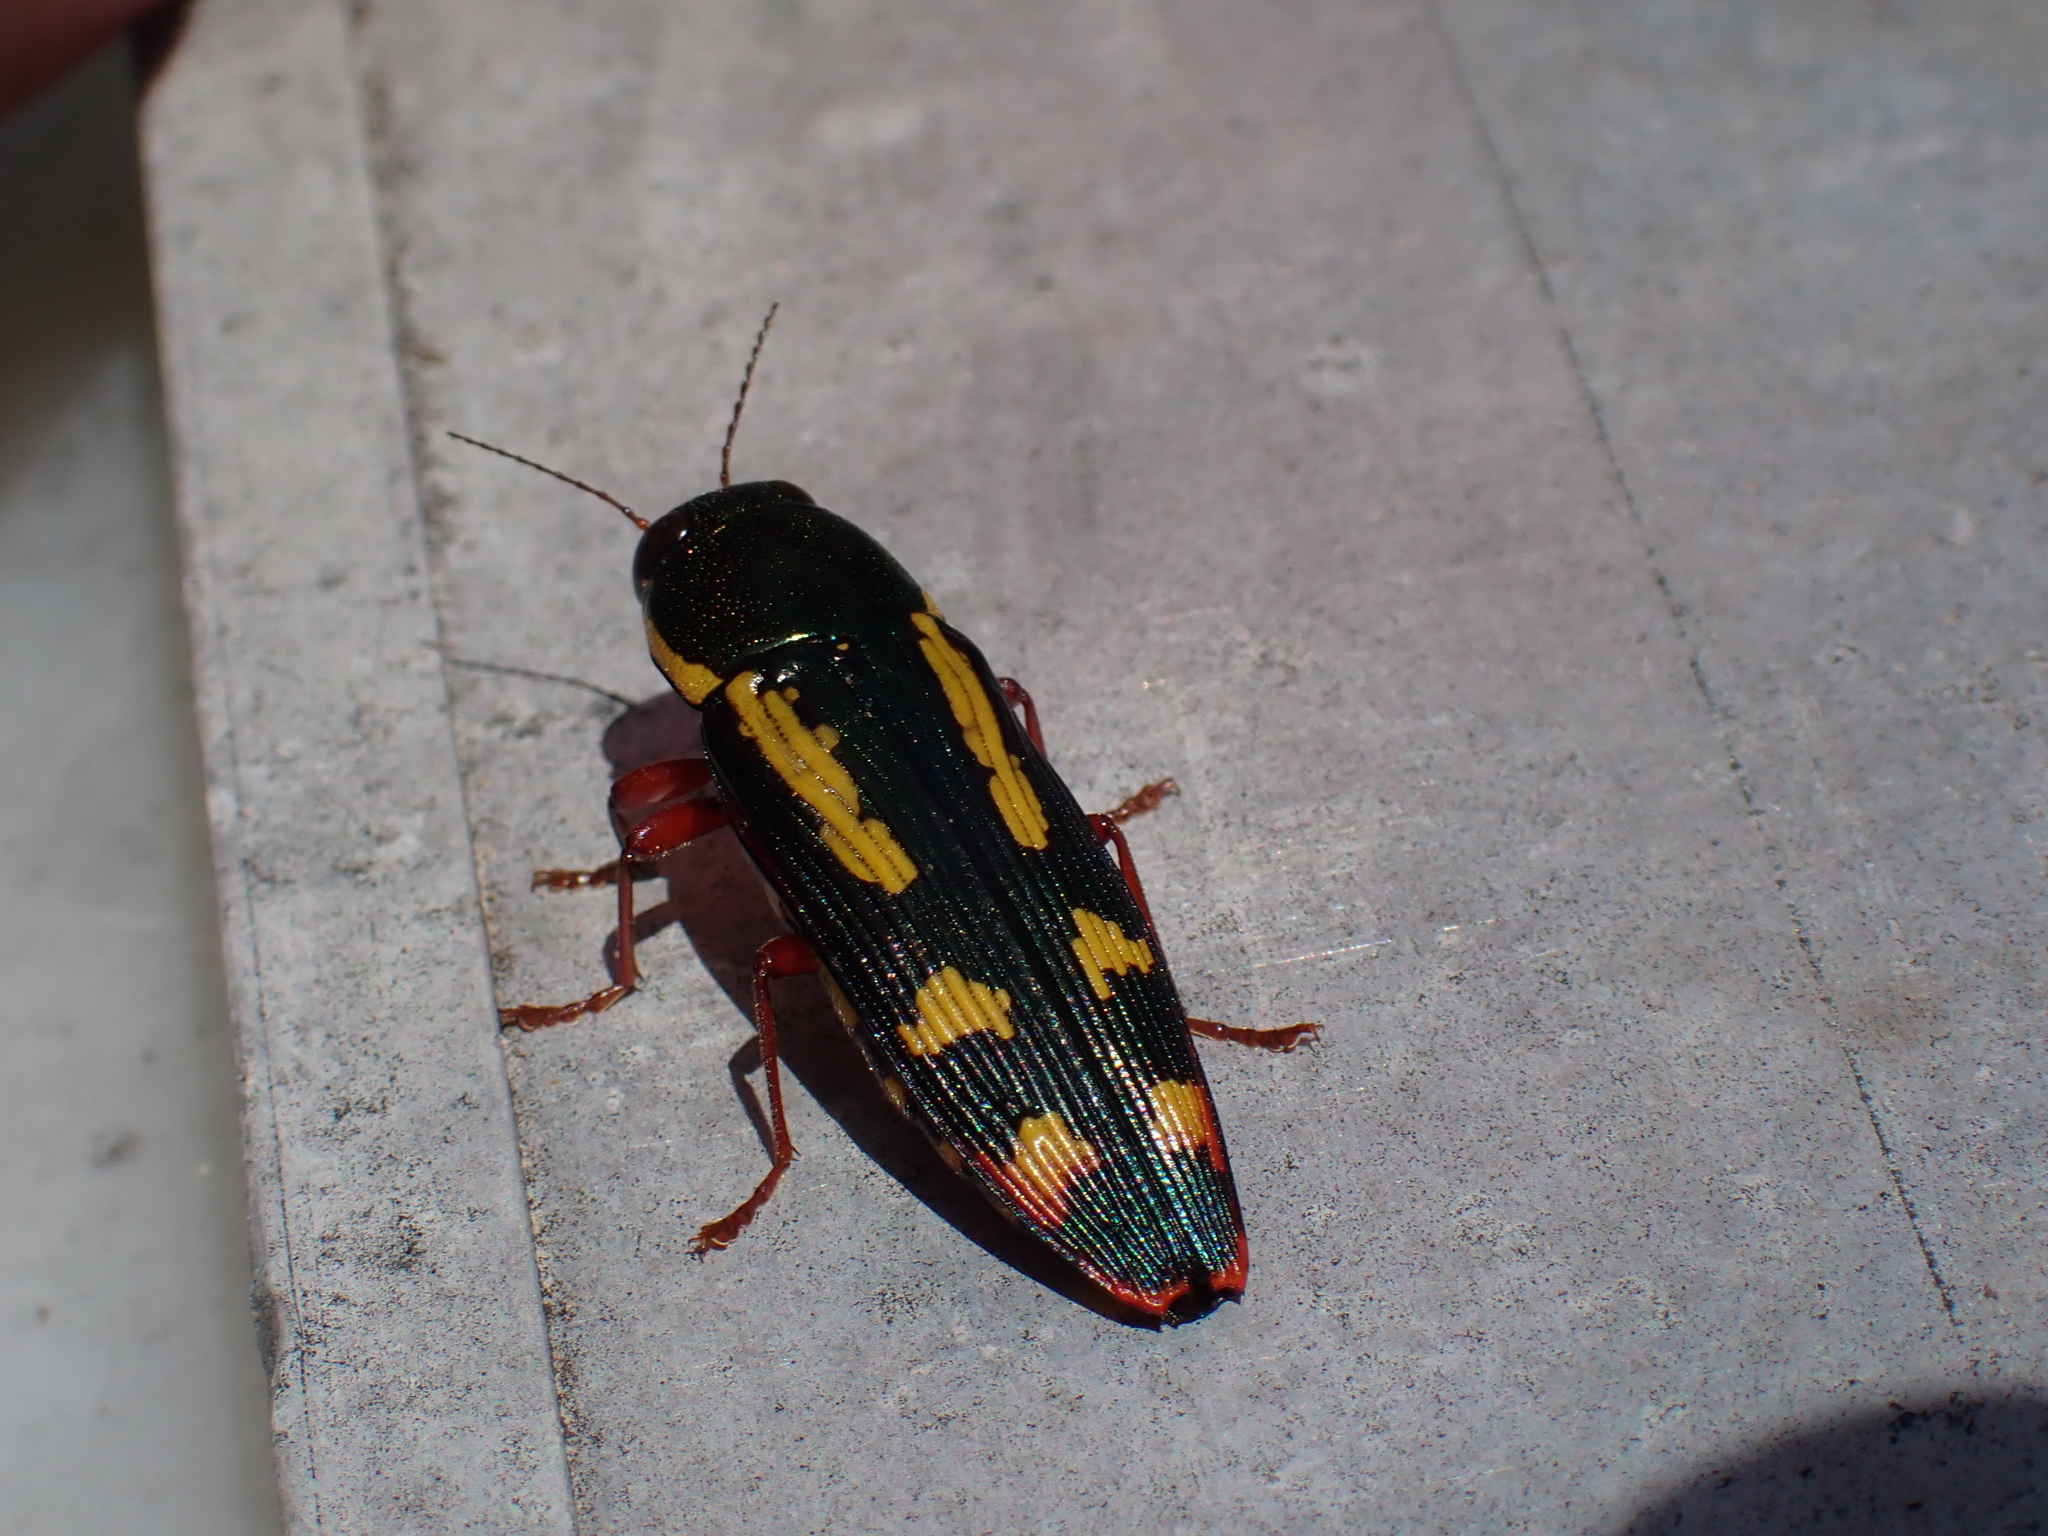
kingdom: Animalia
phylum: Arthropoda
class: Insecta
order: Coleoptera
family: Buprestidae
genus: Buprestis
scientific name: Buprestis rufipes
